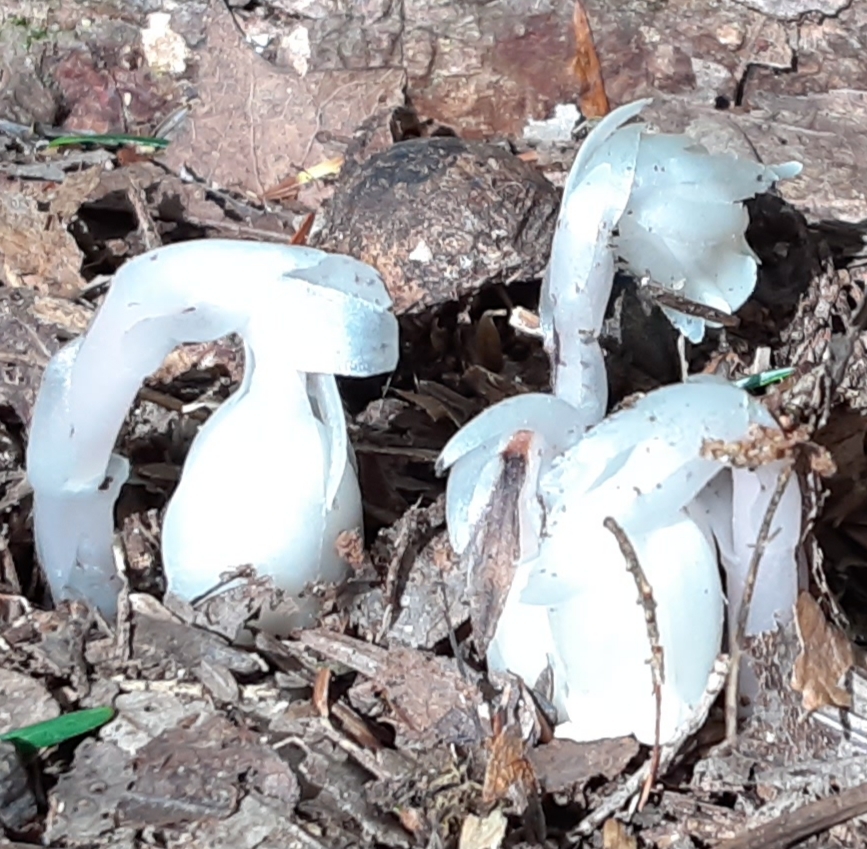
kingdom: Plantae
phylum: Tracheophyta
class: Magnoliopsida
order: Ericales
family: Ericaceae
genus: Monotropa
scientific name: Monotropa uniflora
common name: Convulsion root
